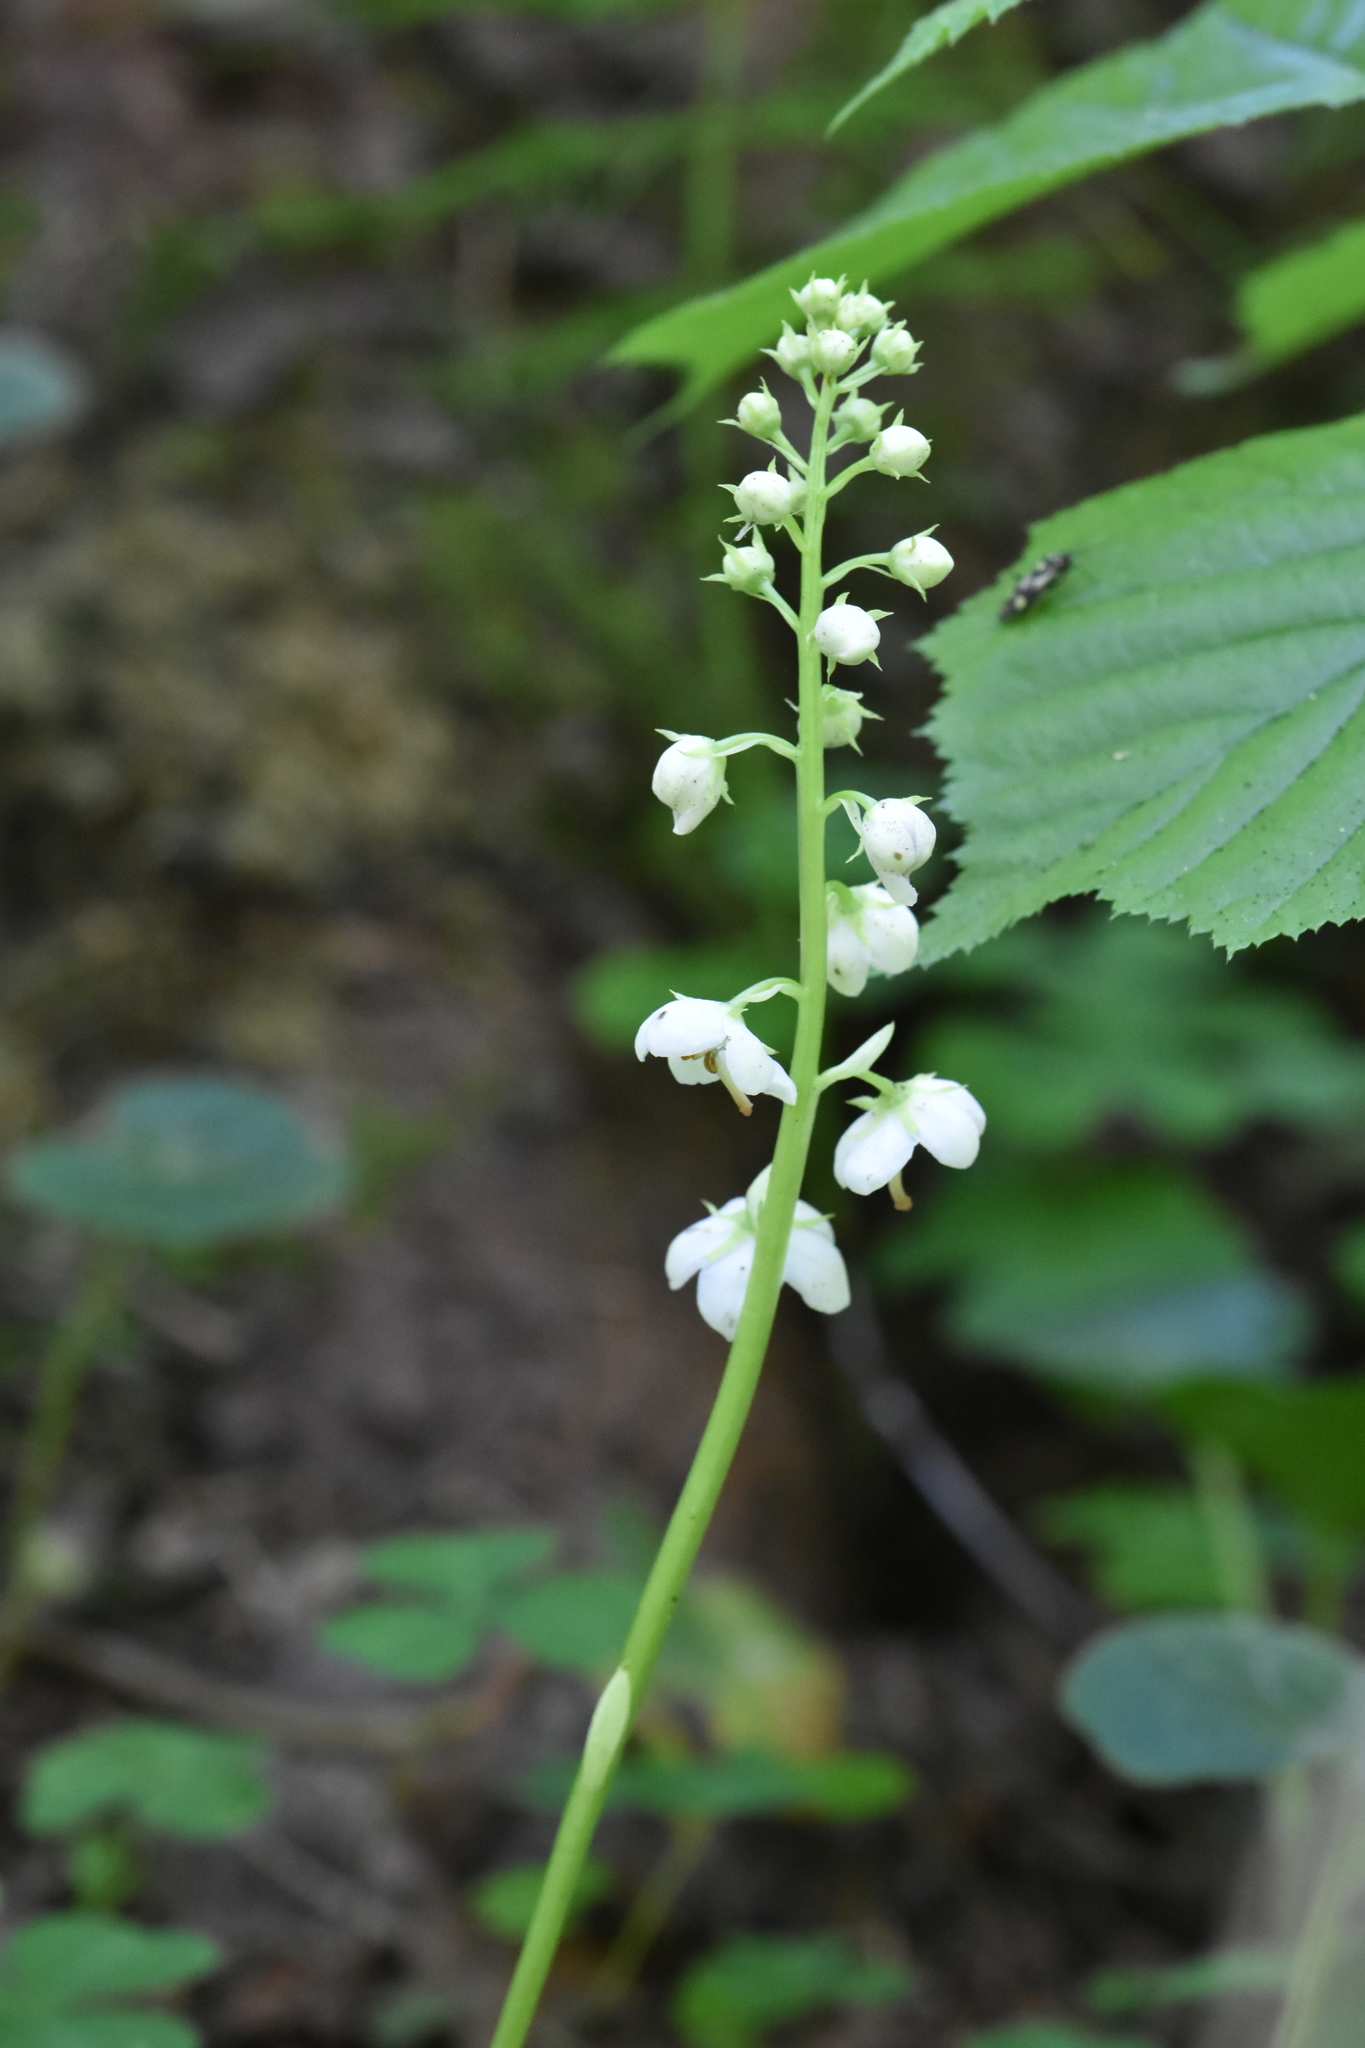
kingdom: Plantae
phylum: Tracheophyta
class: Magnoliopsida
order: Ericales
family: Ericaceae
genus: Pyrola
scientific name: Pyrola rotundifolia
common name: Round-leaved wintergreen
